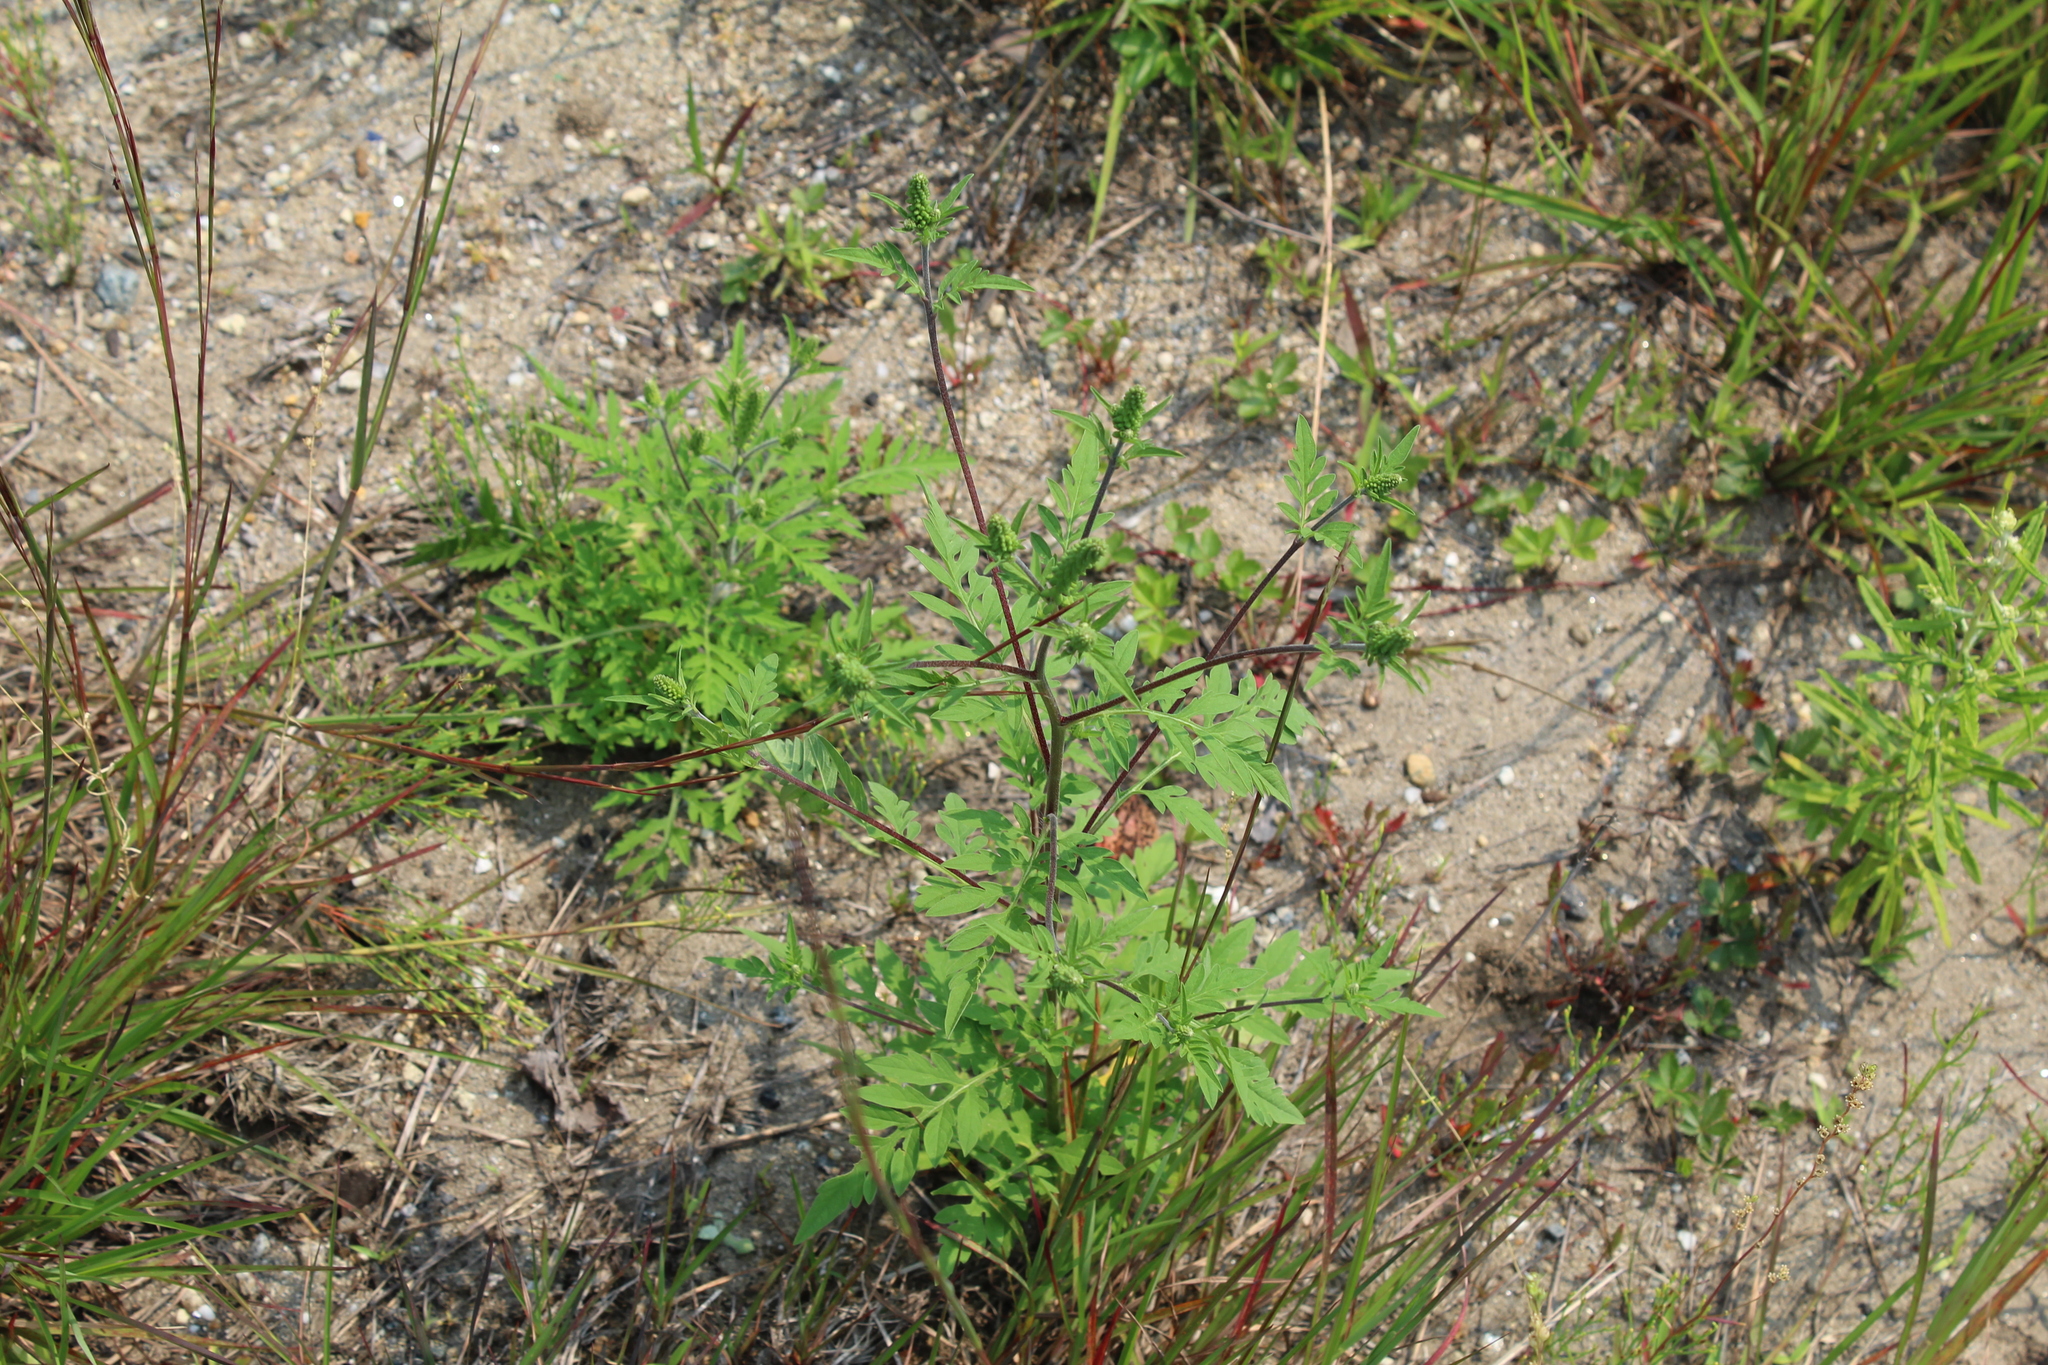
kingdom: Plantae
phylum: Tracheophyta
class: Magnoliopsida
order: Asterales
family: Asteraceae
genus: Ambrosia
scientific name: Ambrosia artemisiifolia
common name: Annual ragweed
